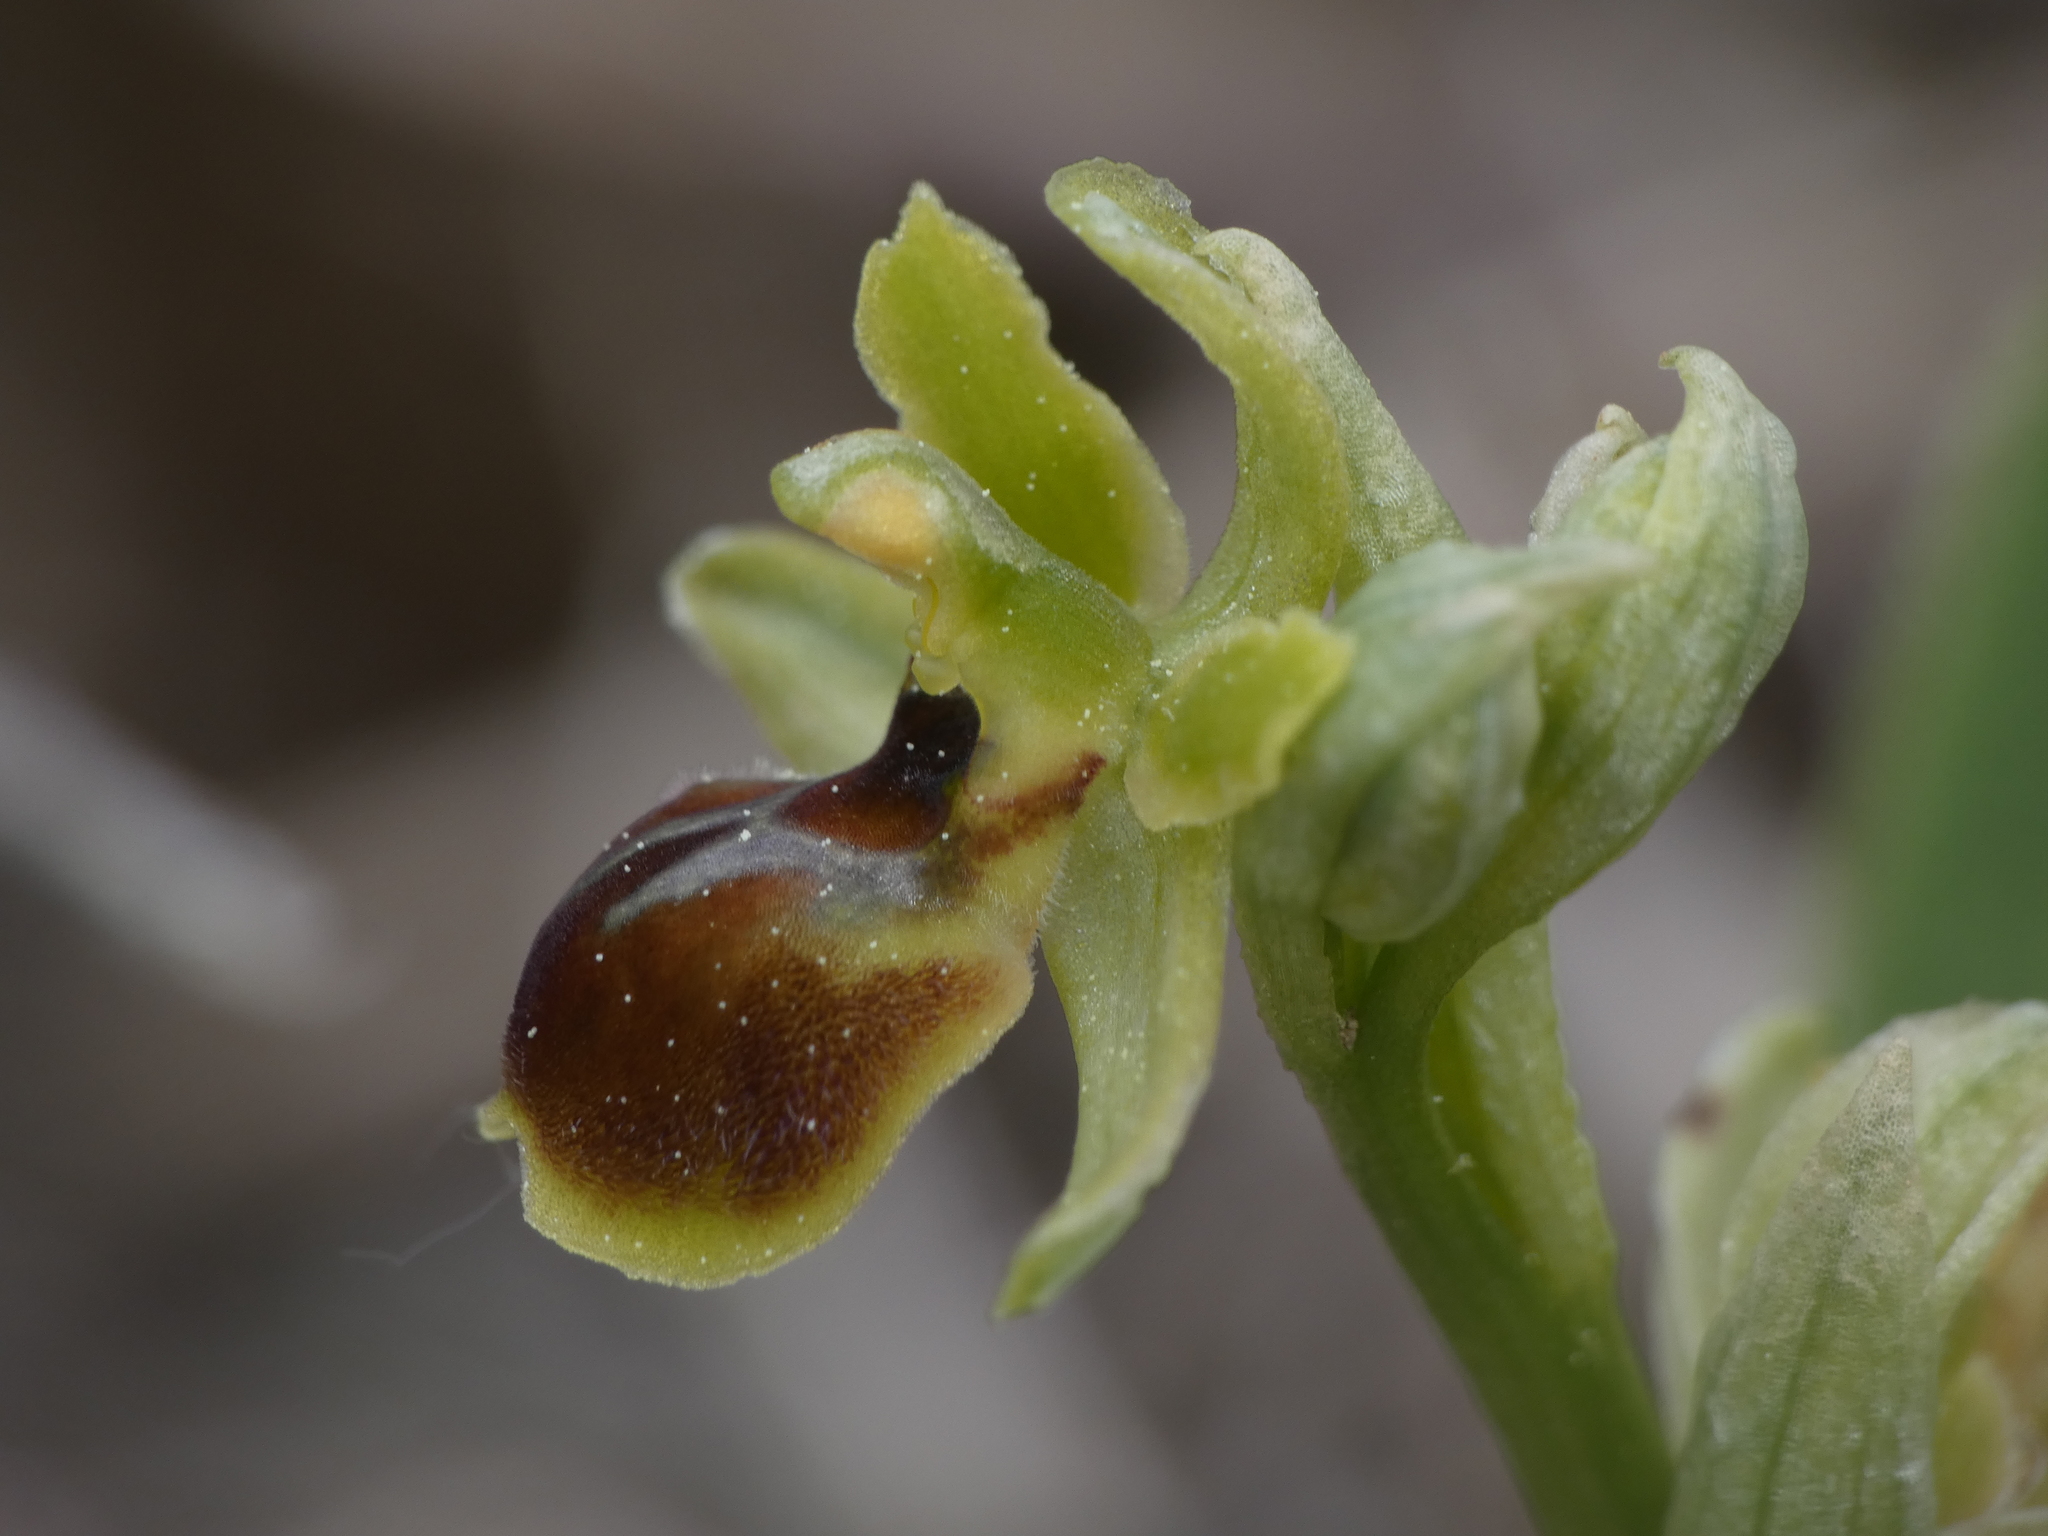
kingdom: Plantae
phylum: Tracheophyta
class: Liliopsida
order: Asparagales
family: Orchidaceae
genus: Ophrys
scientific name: Ophrys sphegodes
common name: Early spider-orchid
